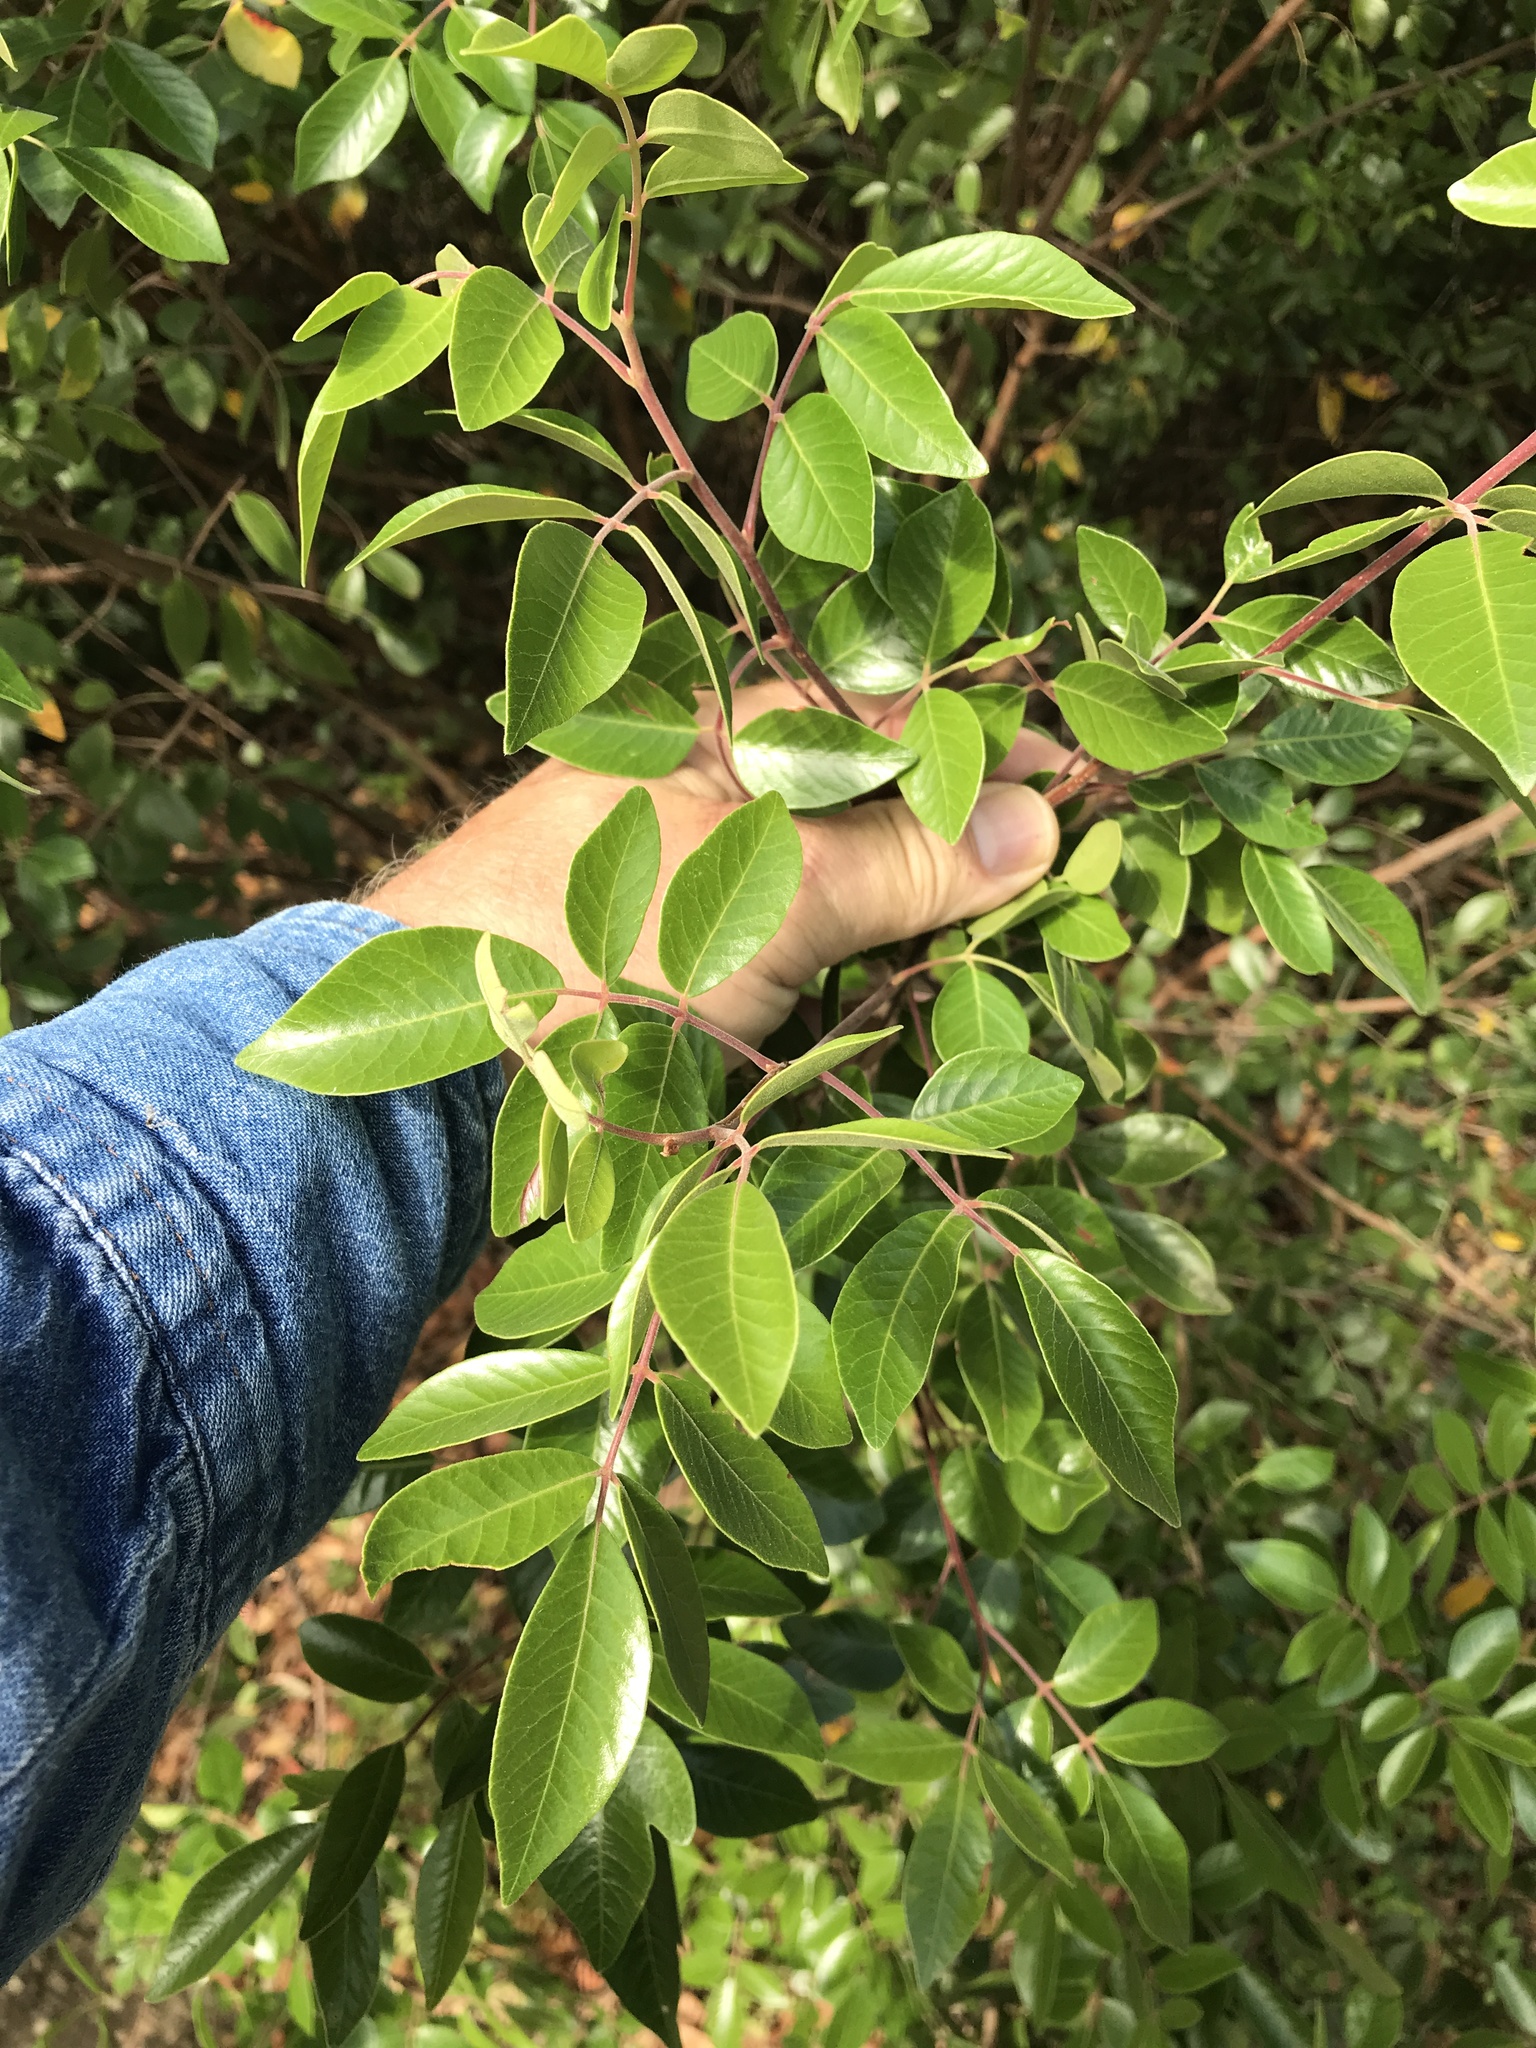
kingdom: Plantae
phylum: Tracheophyta
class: Magnoliopsida
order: Sapindales
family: Anacardiaceae
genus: Rhus
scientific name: Rhus virens
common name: Evergreen sumac
